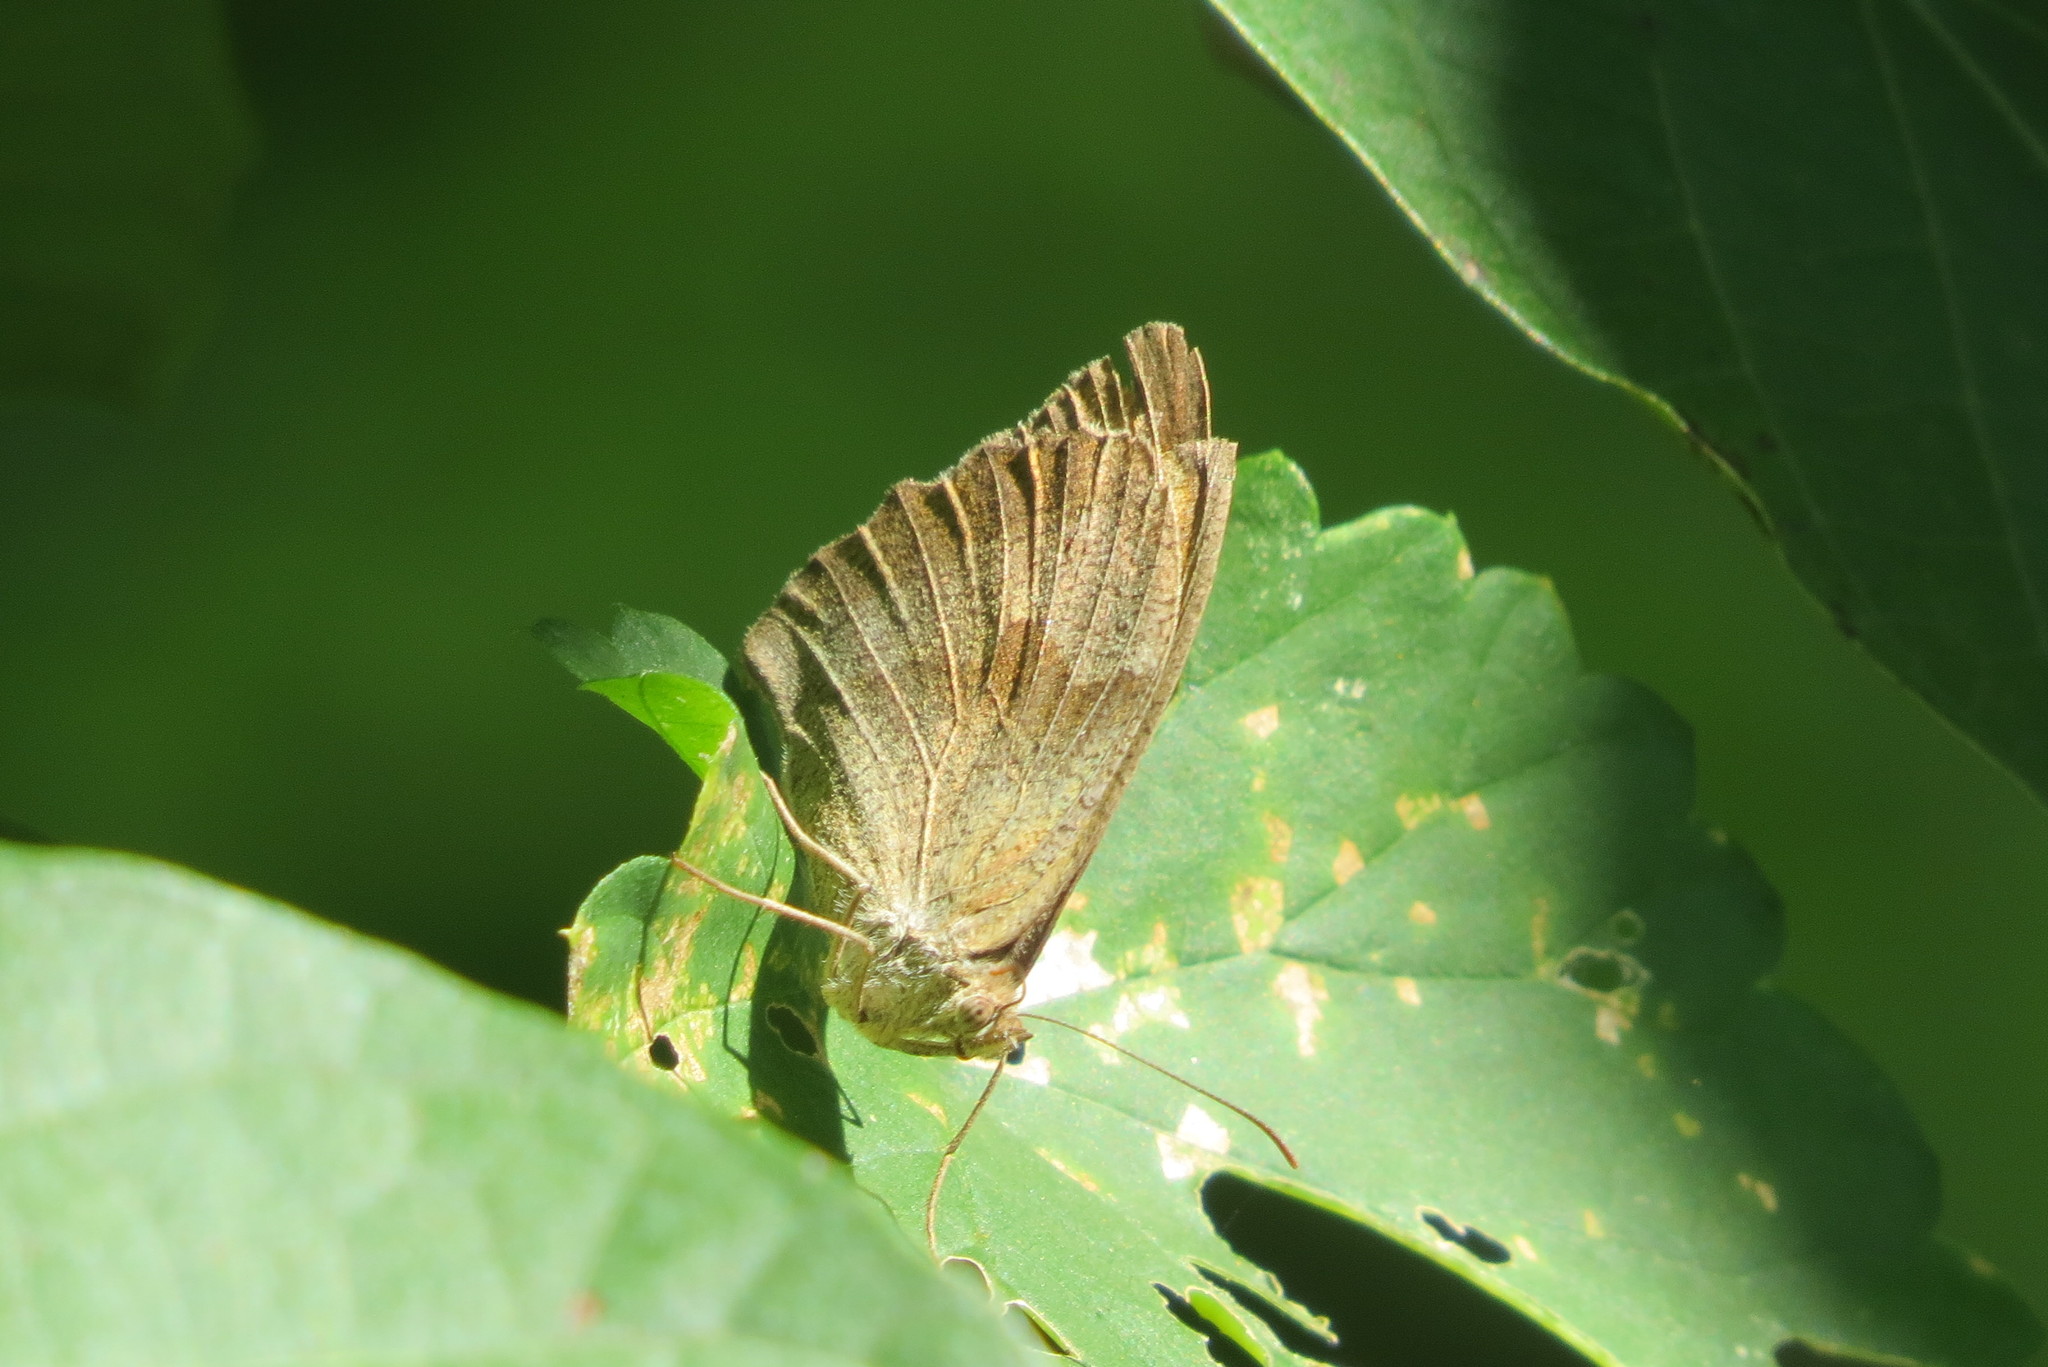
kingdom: Animalia
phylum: Arthropoda
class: Insecta
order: Lepidoptera
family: Nymphalidae
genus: Maniola
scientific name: Maniola jurtina
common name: Meadow brown
